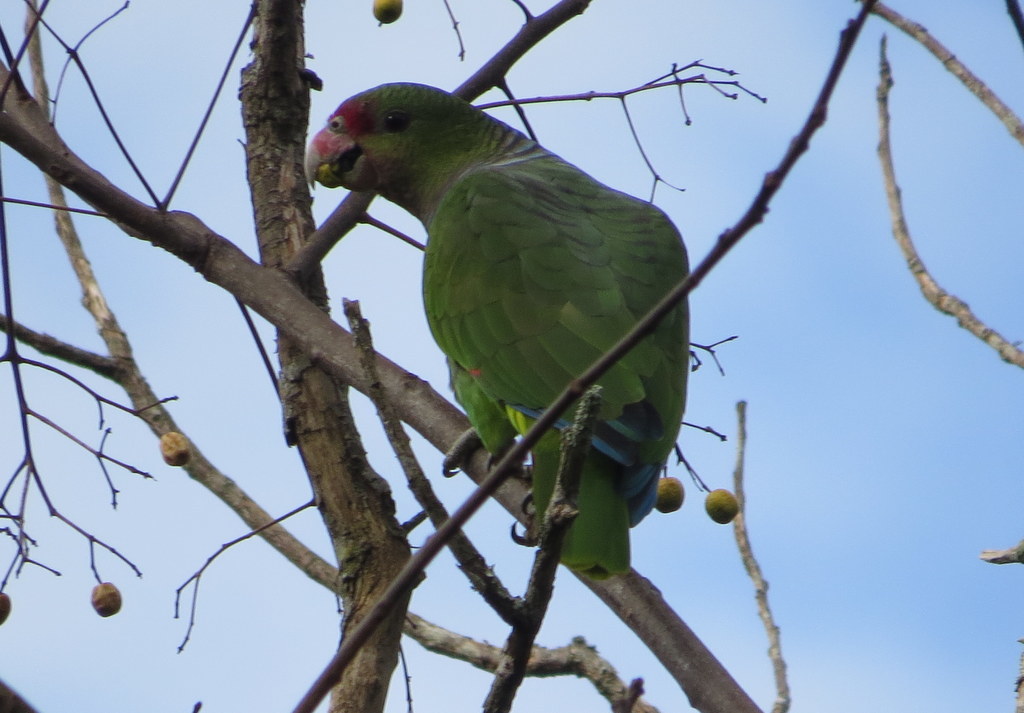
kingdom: Animalia
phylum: Chordata
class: Aves
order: Psittaciformes
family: Psittacidae
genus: Amazona
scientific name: Amazona vinacea
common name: Vinaceous-breasted amazon
